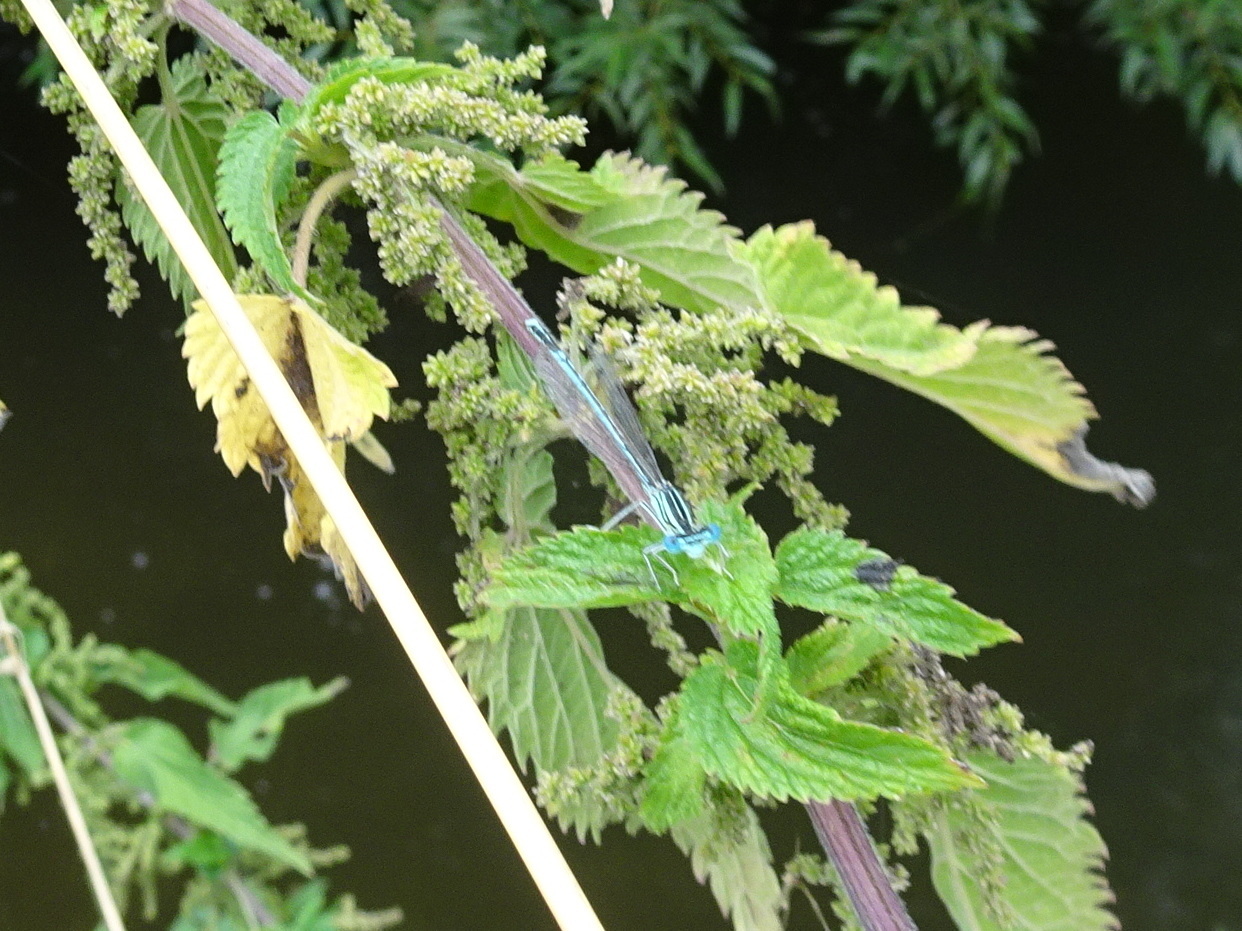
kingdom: Animalia
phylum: Arthropoda
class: Insecta
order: Odonata
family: Platycnemididae
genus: Platycnemis
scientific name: Platycnemis pennipes
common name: White-legged damselfly
